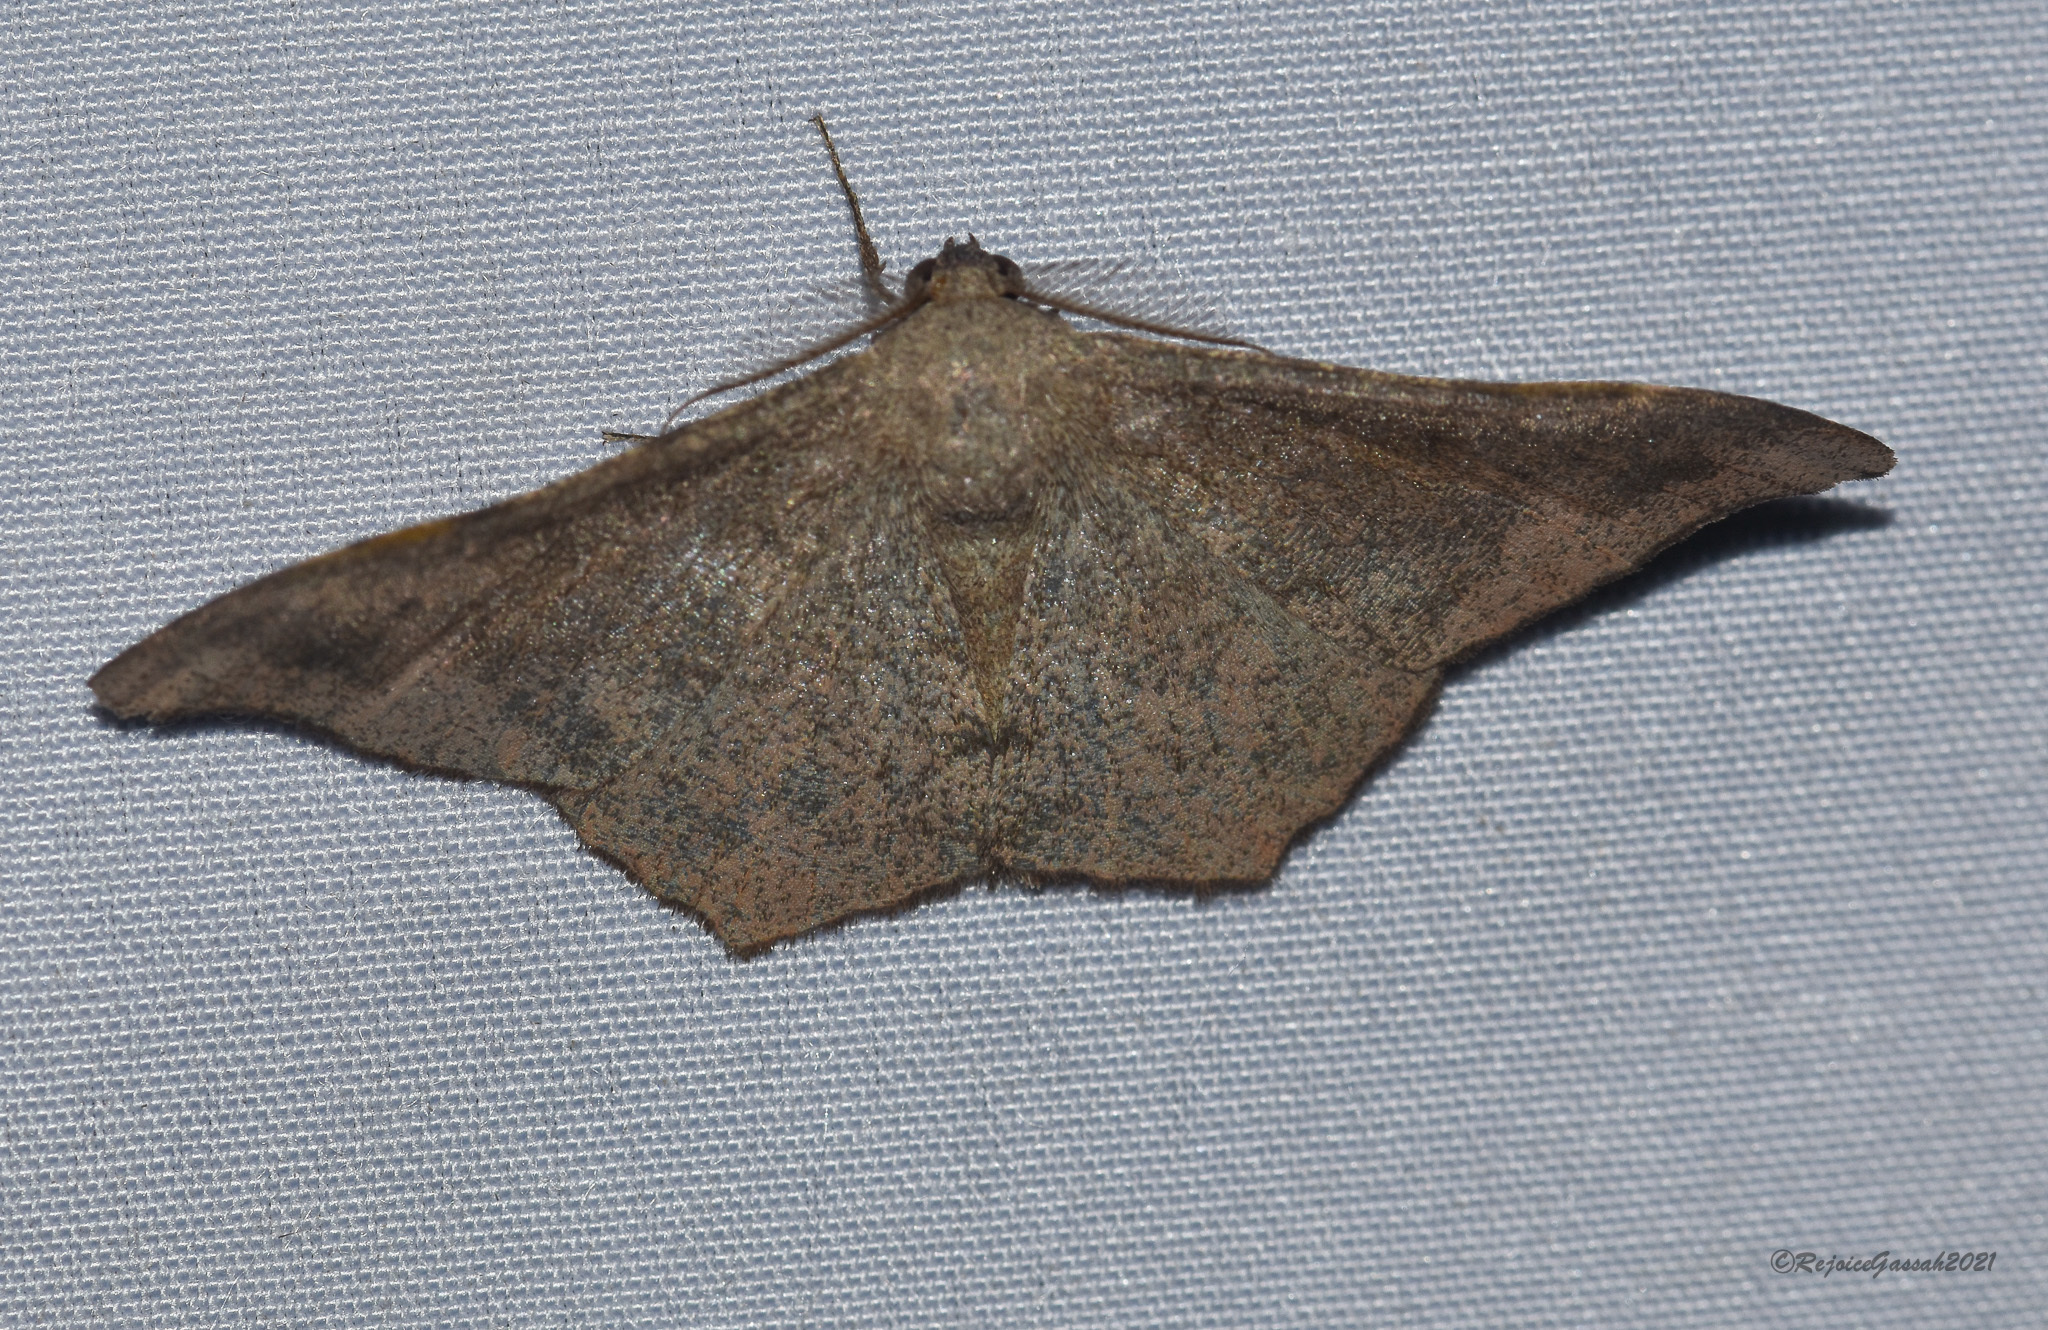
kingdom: Animalia
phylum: Arthropoda
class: Insecta
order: Lepidoptera
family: Geometridae
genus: Hyposidra
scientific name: Hyposidra talaca
